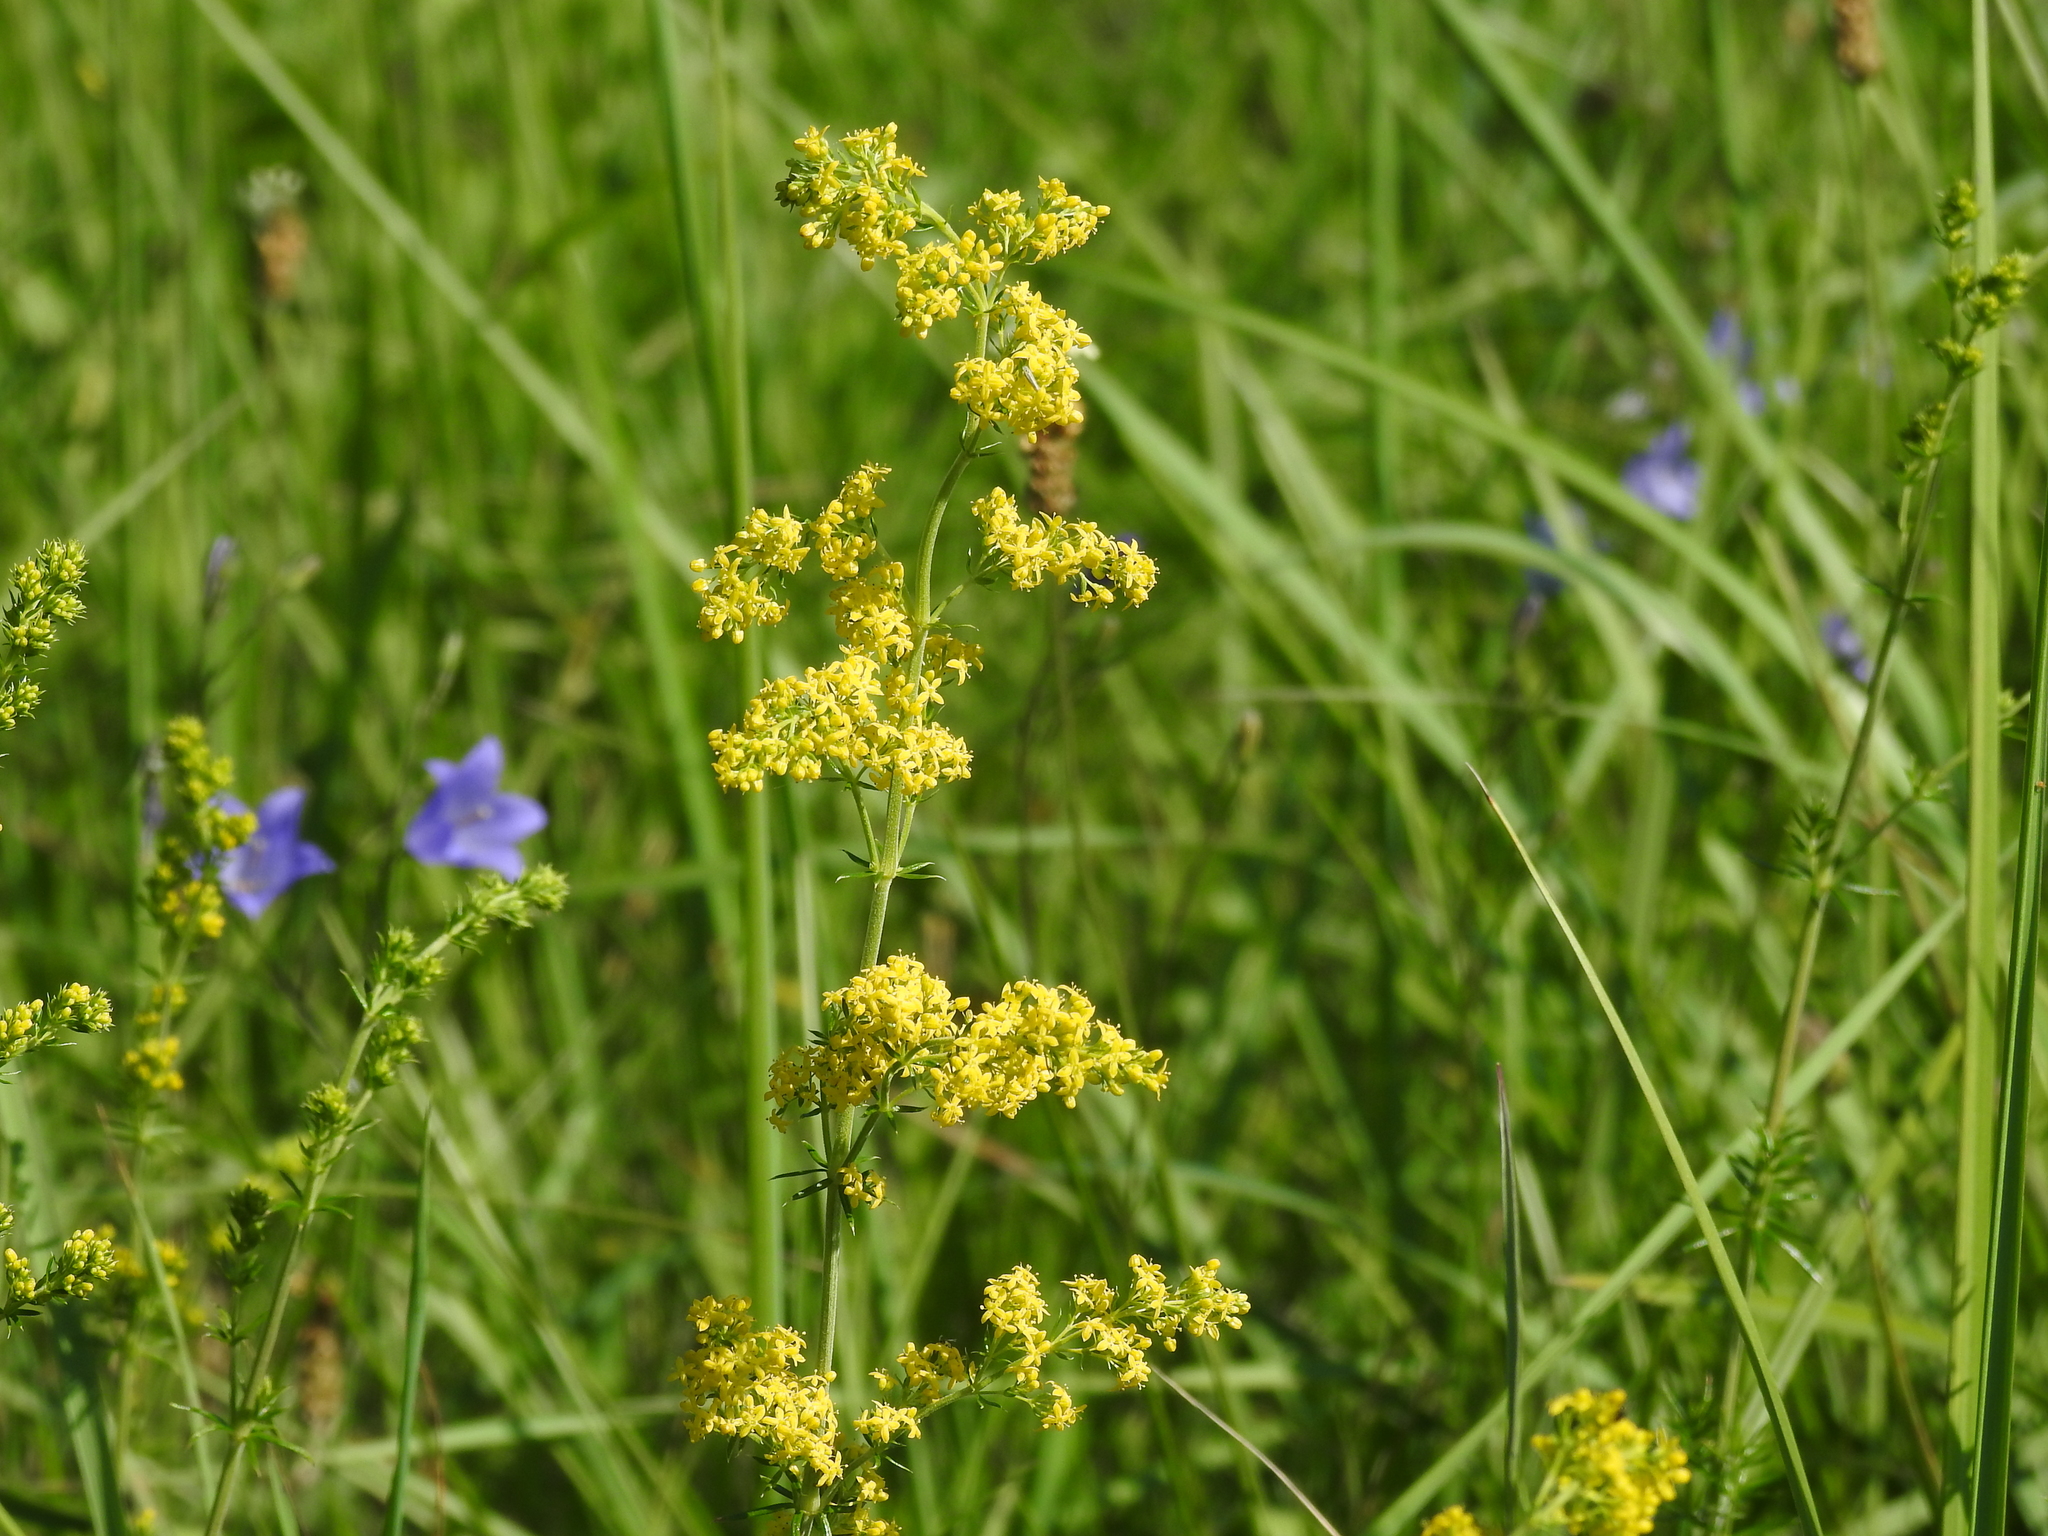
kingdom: Plantae
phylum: Tracheophyta
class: Magnoliopsida
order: Gentianales
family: Rubiaceae
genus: Galium
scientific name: Galium verum
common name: Lady's bedstraw
